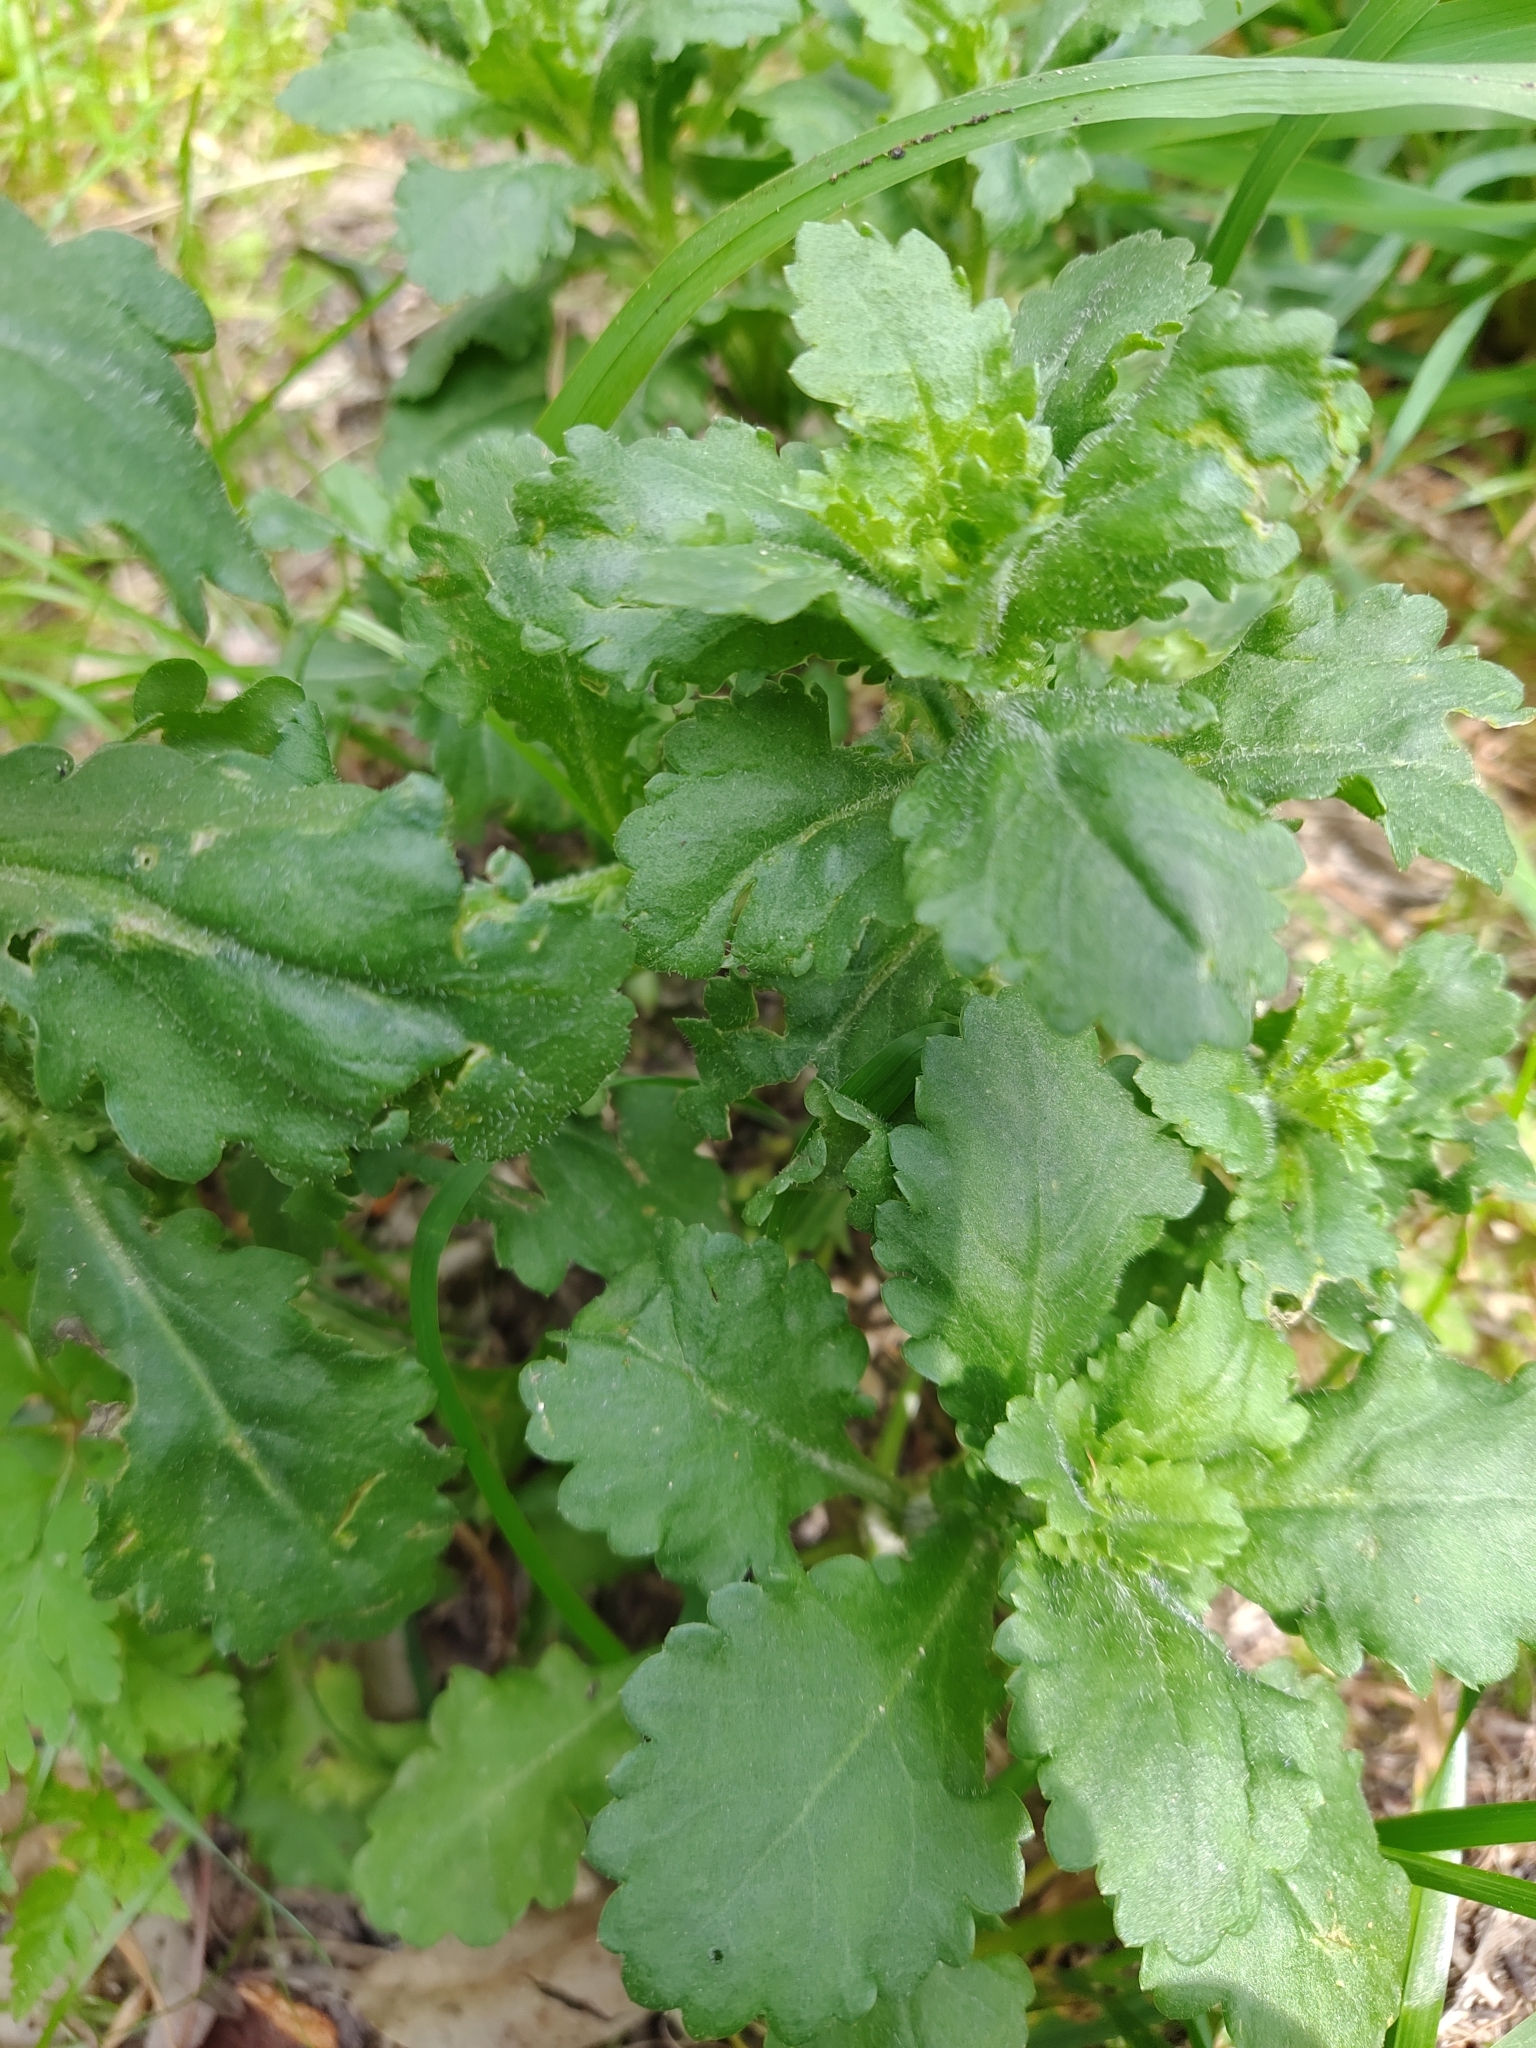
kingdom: Plantae
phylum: Tracheophyta
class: Magnoliopsida
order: Asterales
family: Asteraceae
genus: Leucanthemum
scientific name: Leucanthemum ircutianum
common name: Daisy
